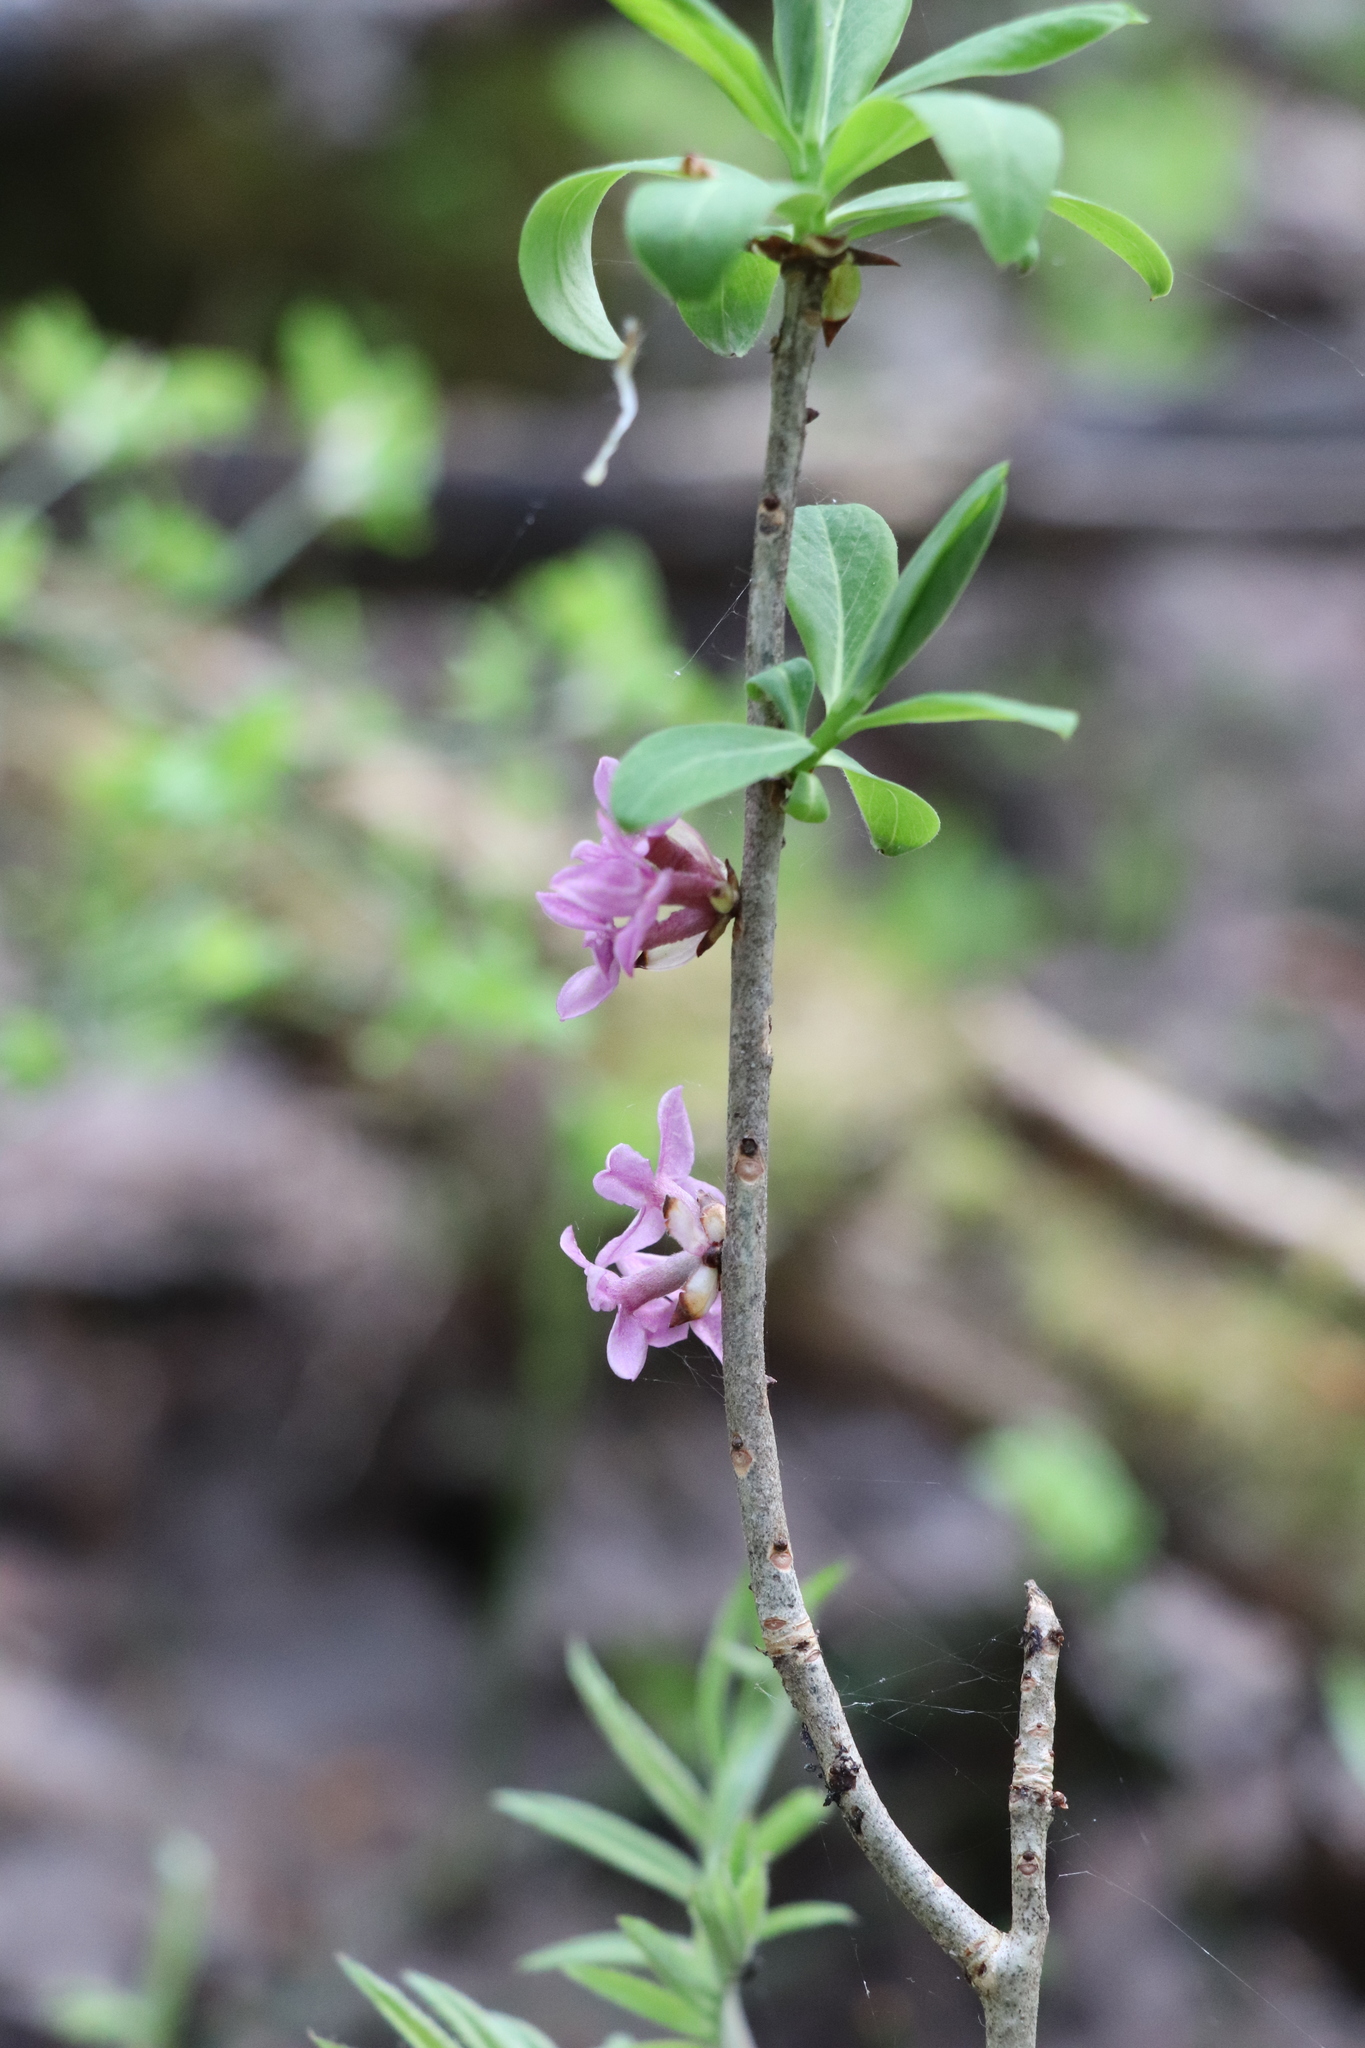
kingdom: Plantae
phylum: Tracheophyta
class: Magnoliopsida
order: Malvales
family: Thymelaeaceae
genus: Daphne
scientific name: Daphne mezereum
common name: Mezereon
